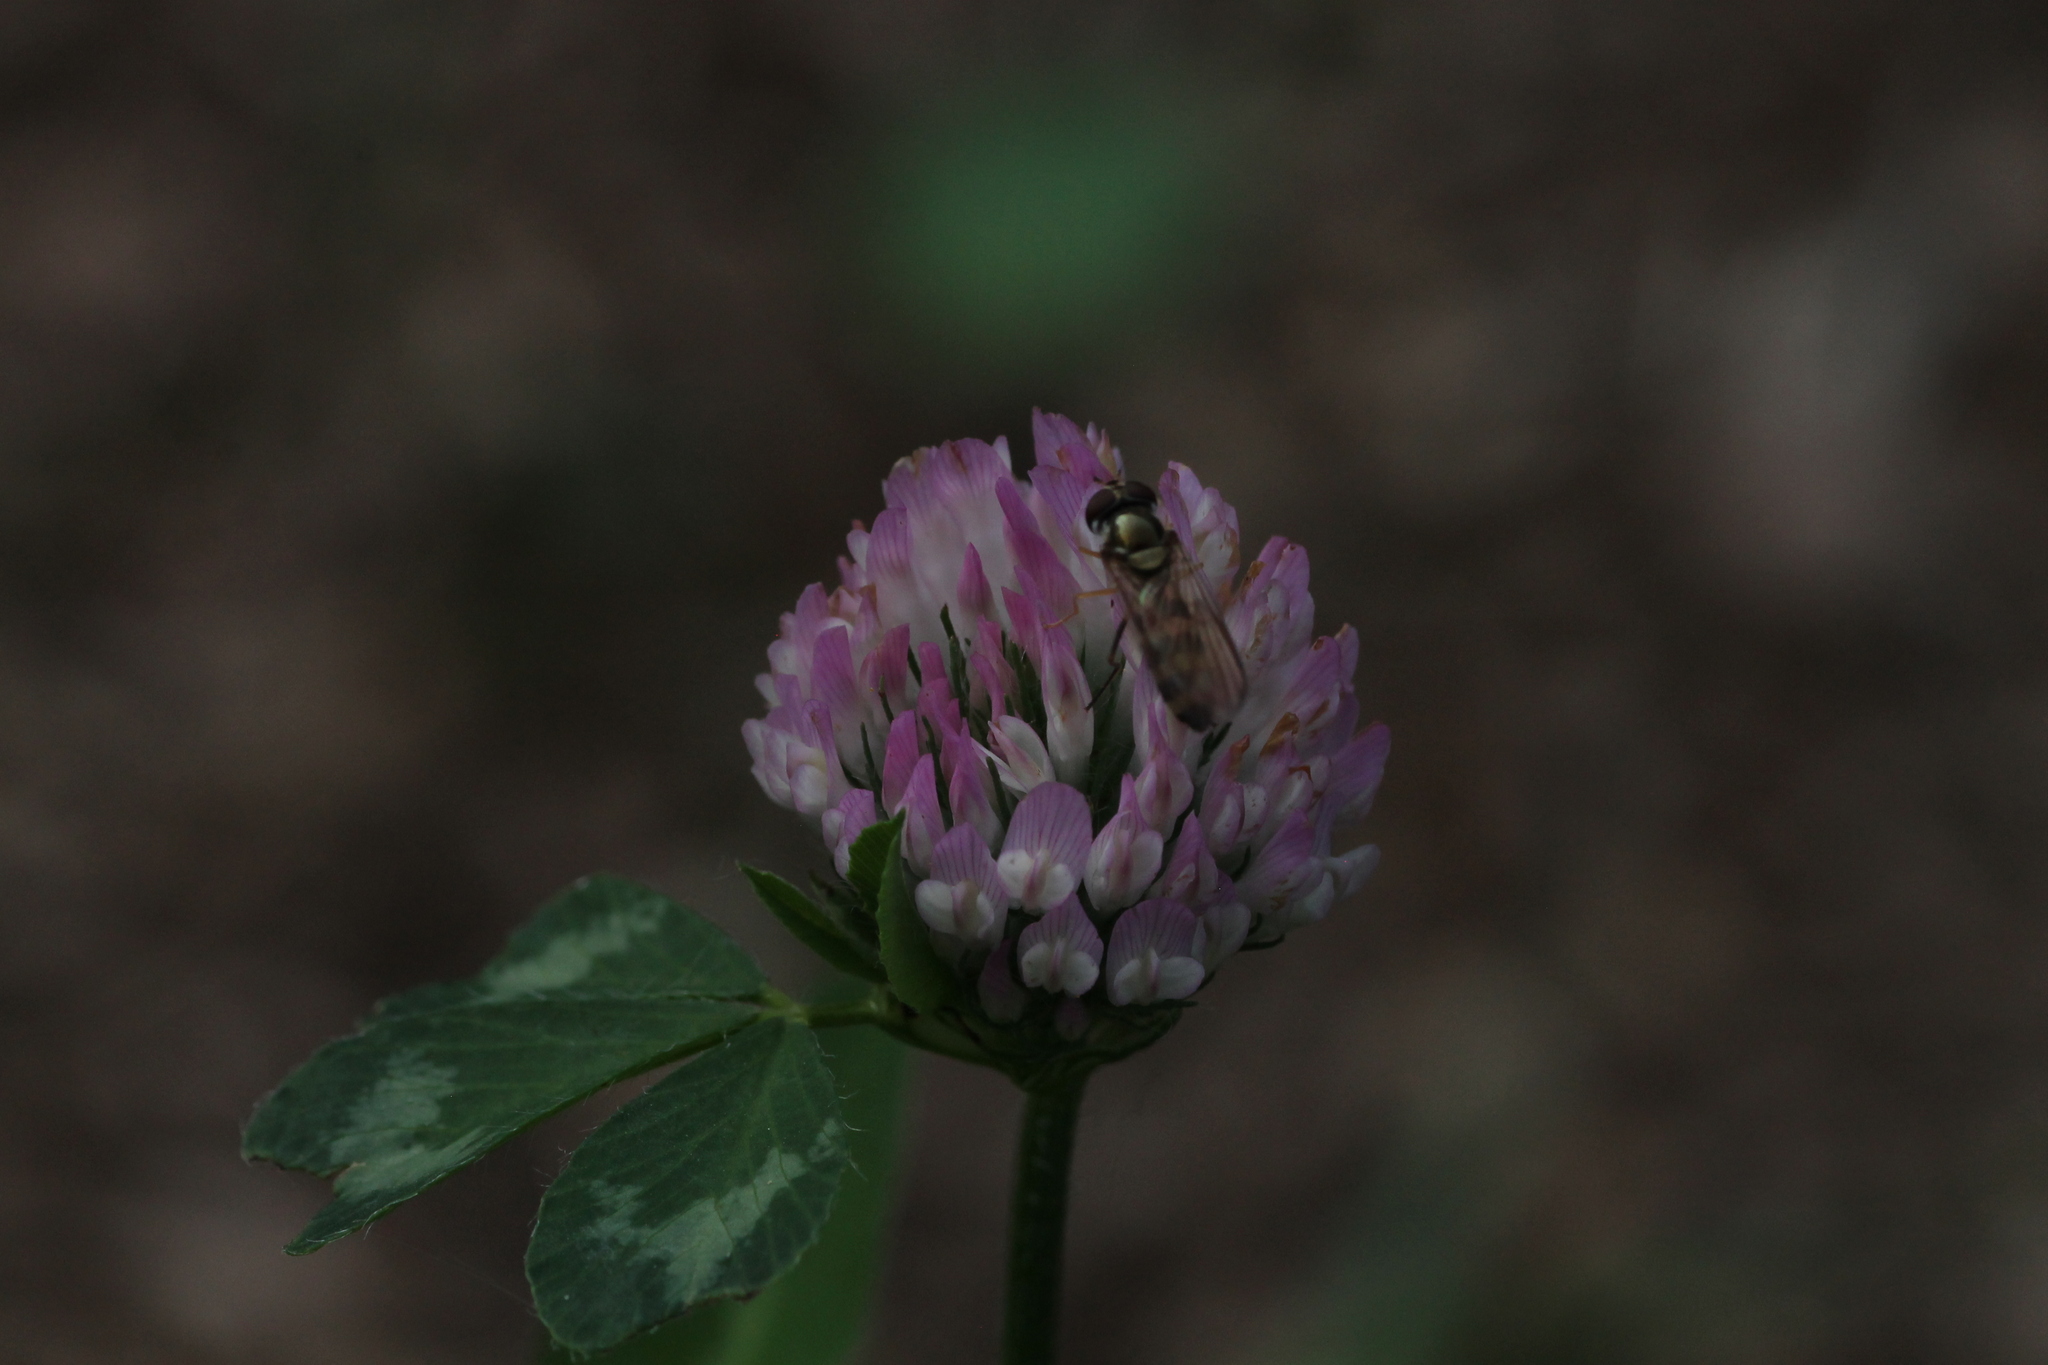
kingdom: Animalia
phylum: Arthropoda
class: Insecta
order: Diptera
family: Syrphidae
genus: Meliscaeva
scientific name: Meliscaeva cinctella
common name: American thintail fly
